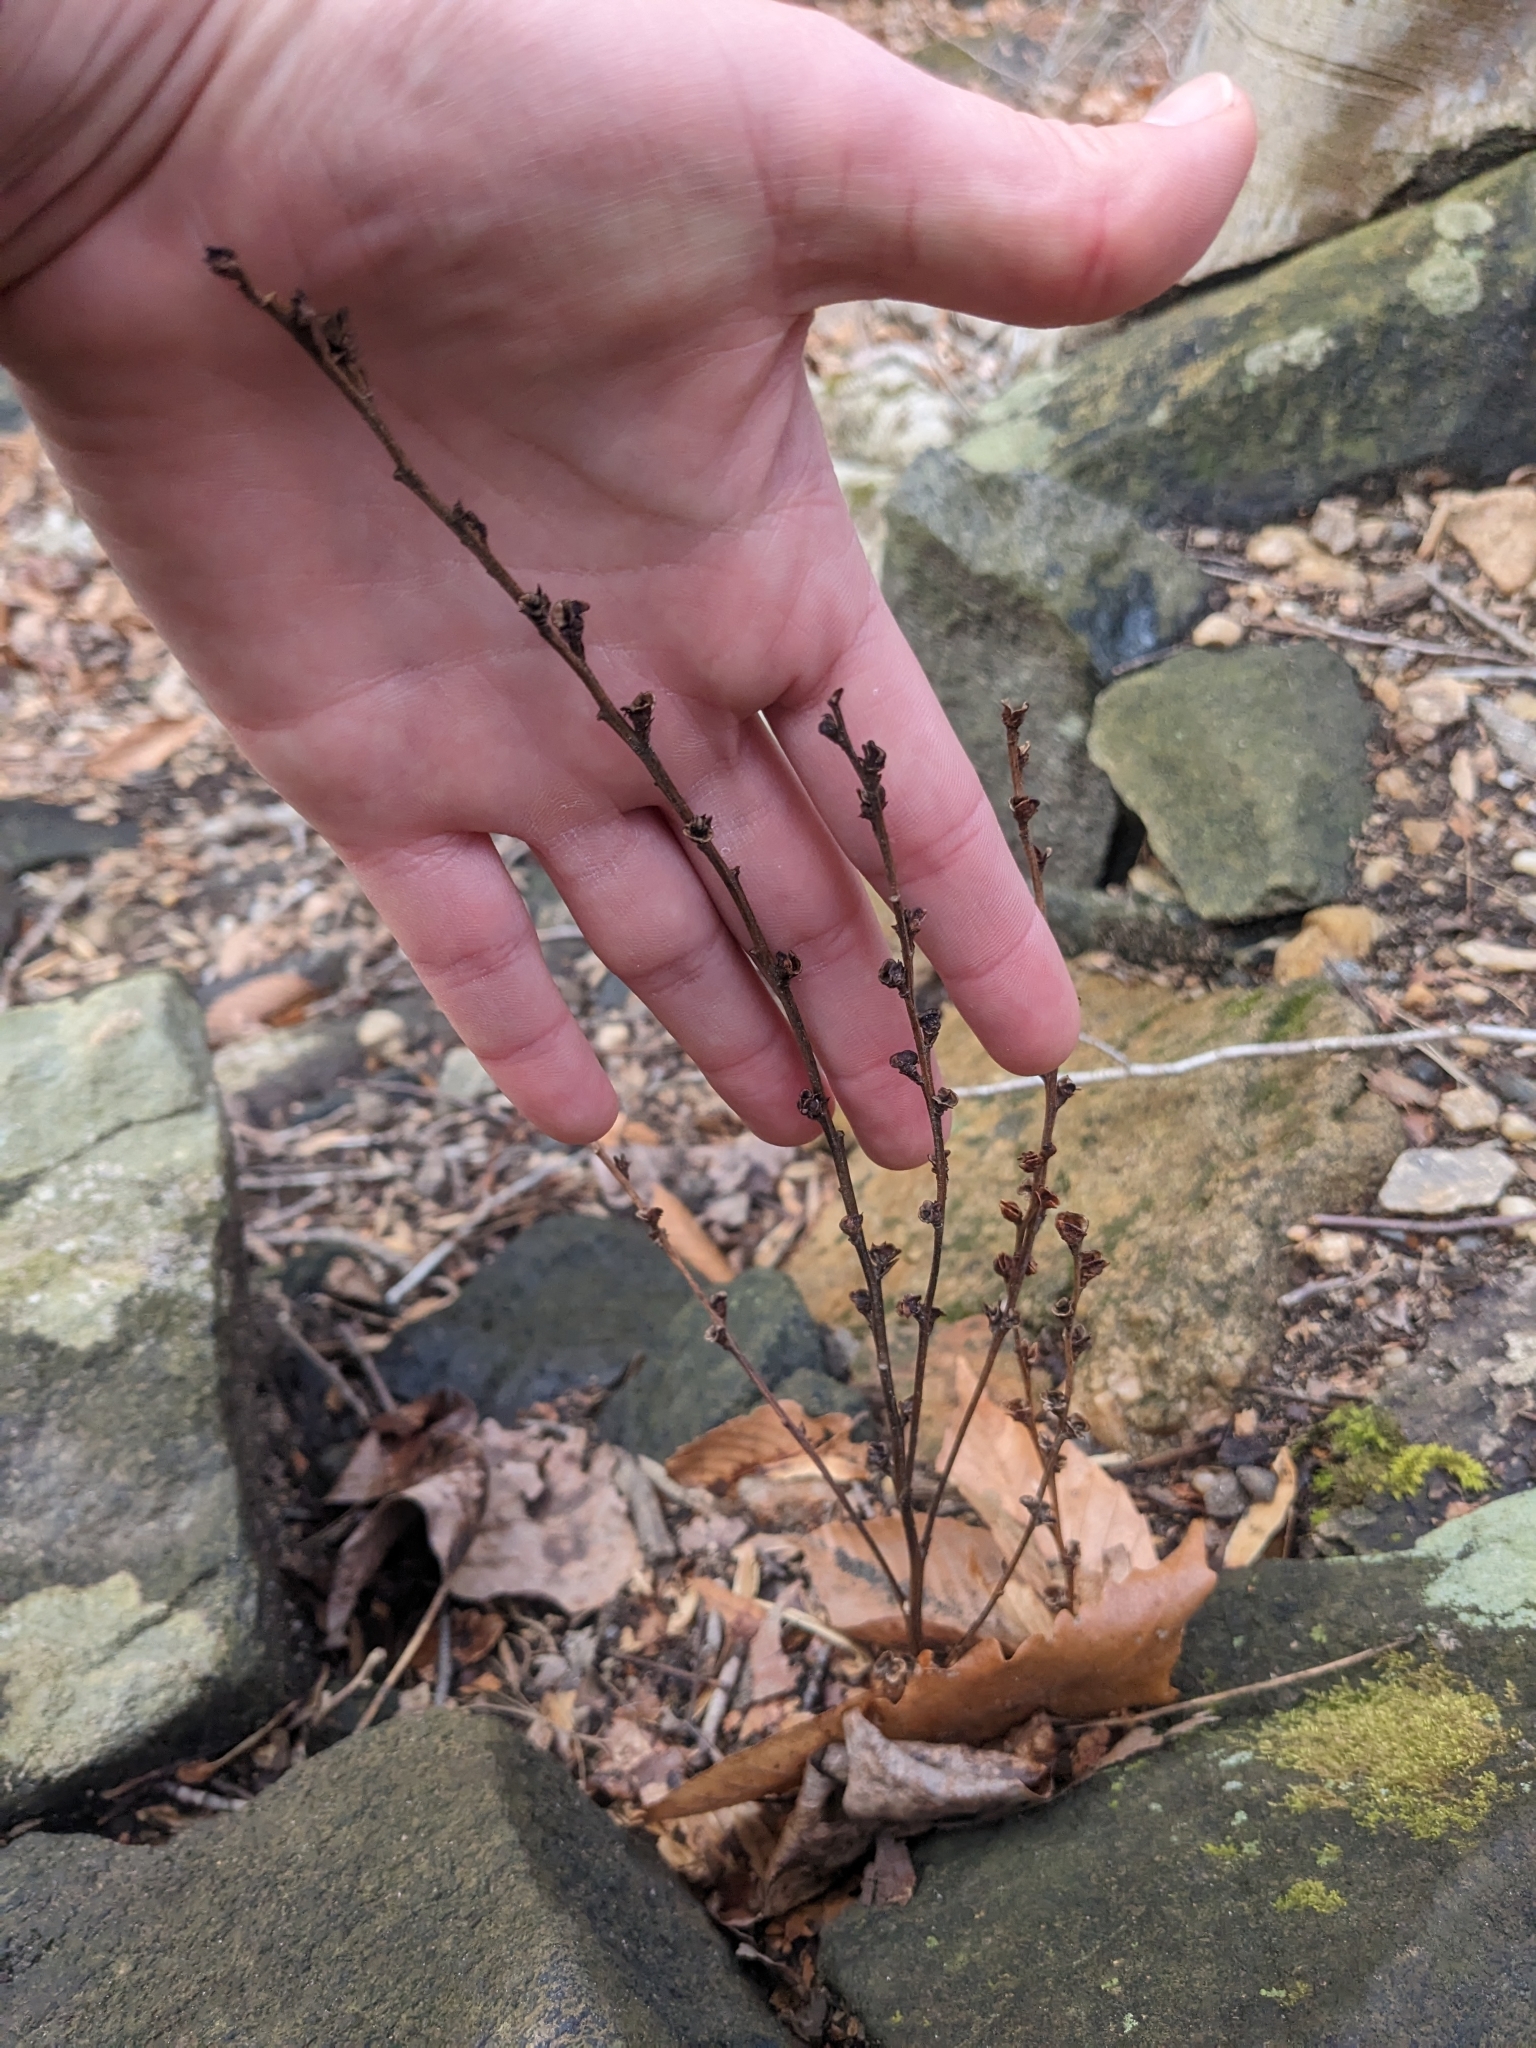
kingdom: Plantae
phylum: Tracheophyta
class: Magnoliopsida
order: Lamiales
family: Orobanchaceae
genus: Epifagus
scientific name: Epifagus virginiana
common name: Beechdrops
